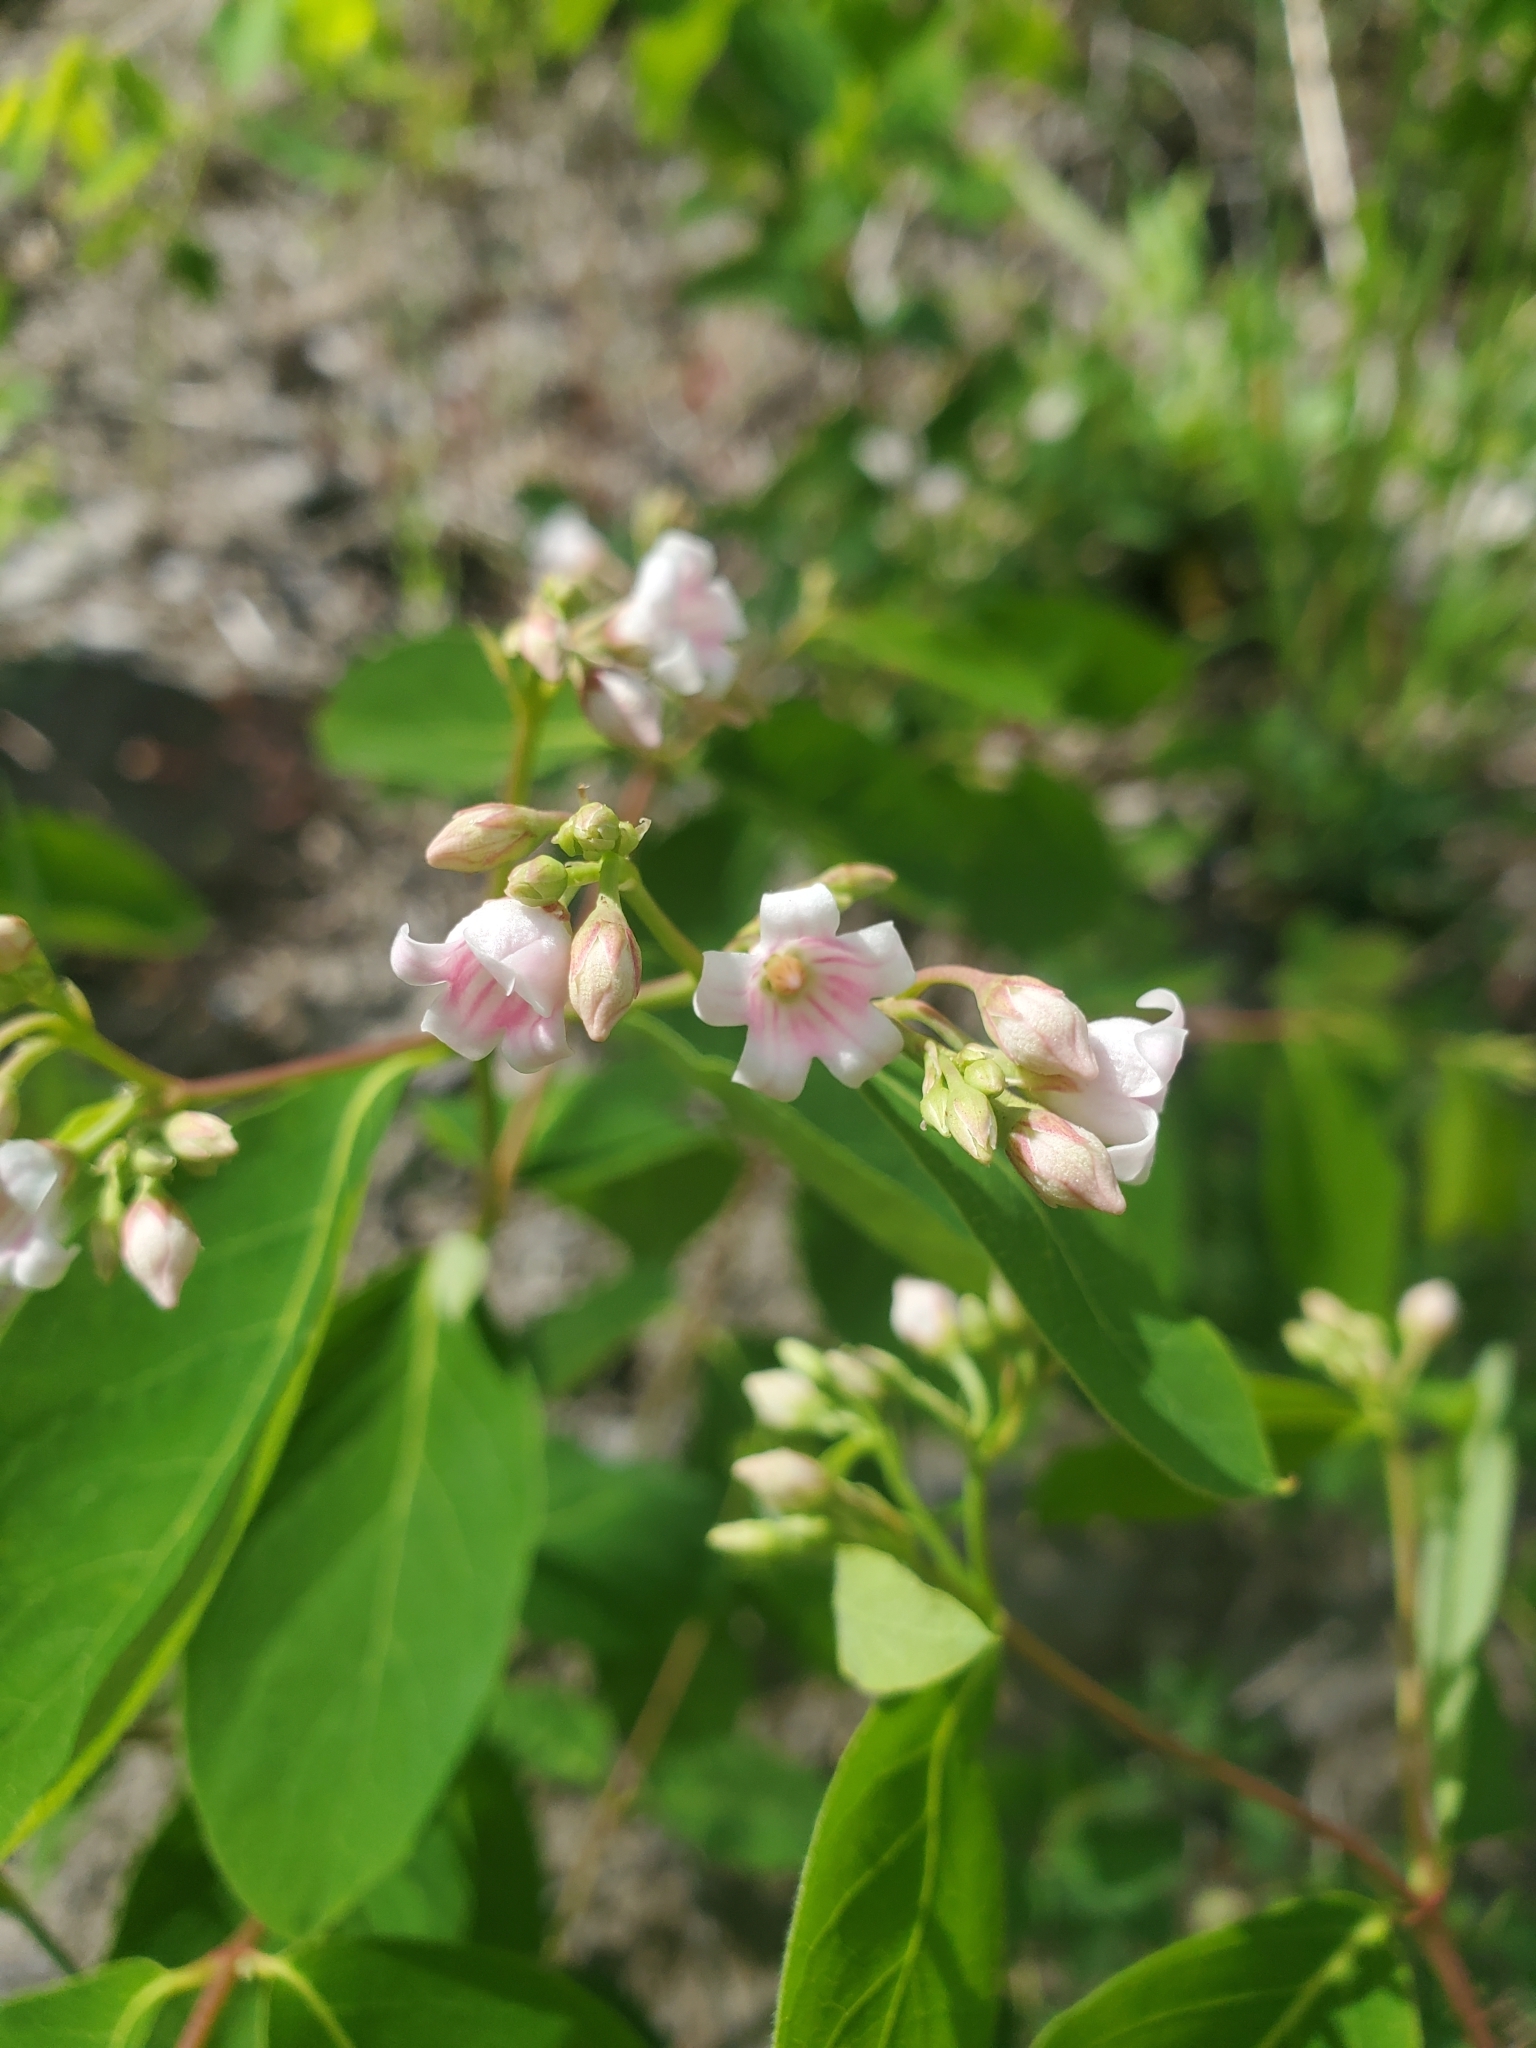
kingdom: Plantae
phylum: Tracheophyta
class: Magnoliopsida
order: Gentianales
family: Apocynaceae
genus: Apocynum
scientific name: Apocynum androsaemifolium
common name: Spreading dogbane
